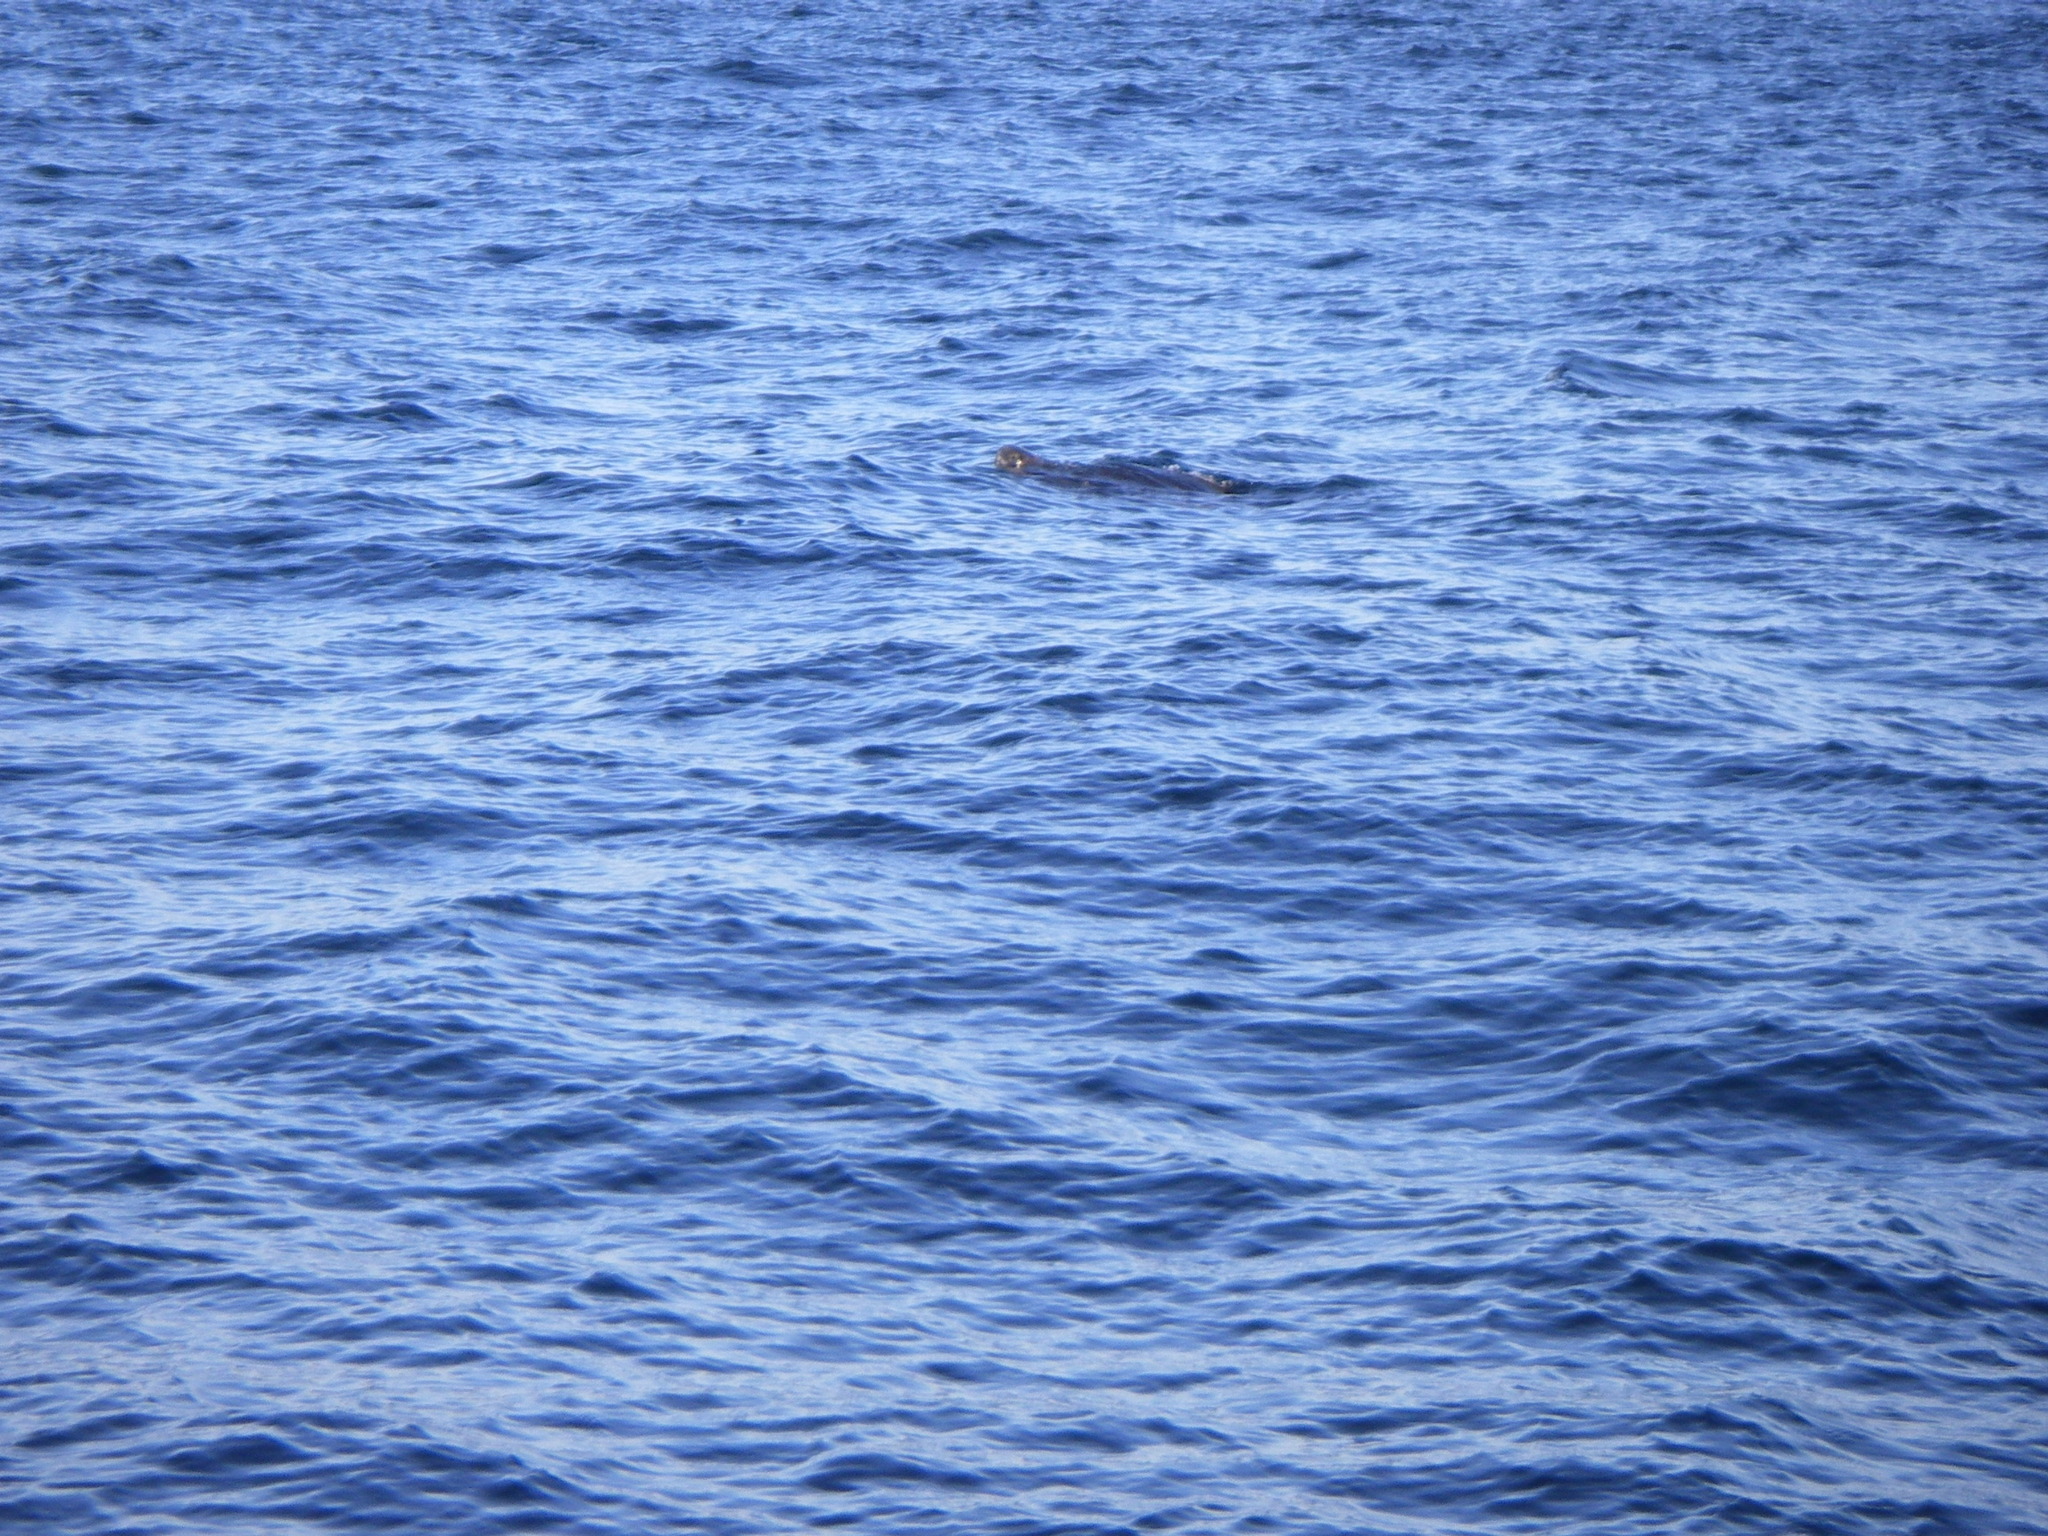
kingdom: Animalia
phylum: Chordata
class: Testudines
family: Dermochelyidae
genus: Dermochelys
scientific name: Dermochelys coriacea
